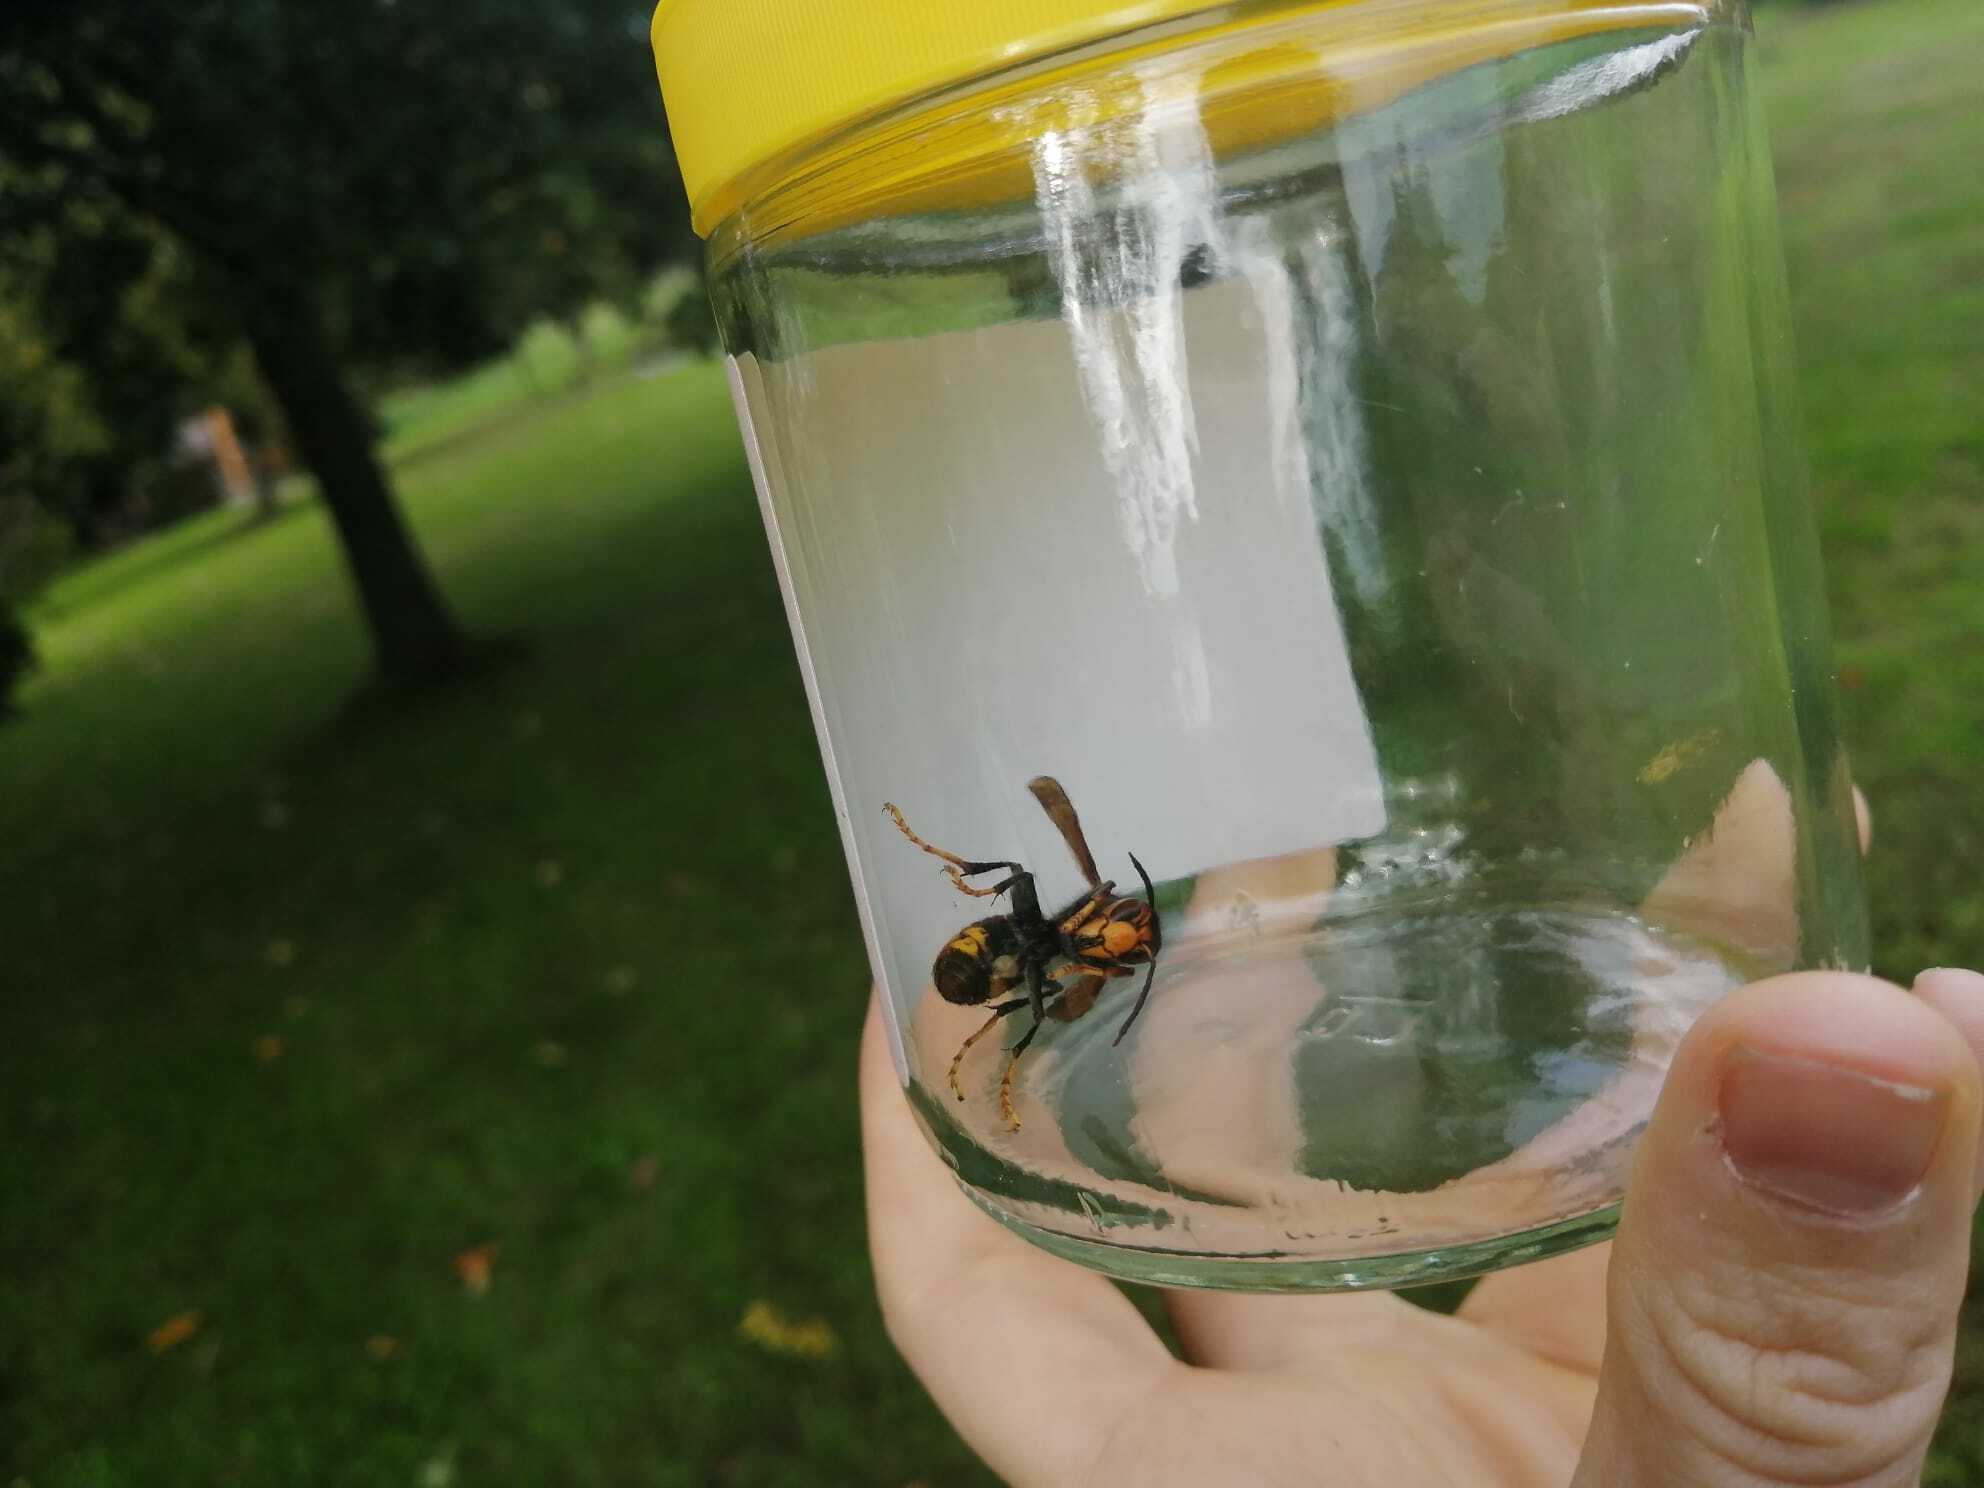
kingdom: Animalia
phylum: Arthropoda
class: Insecta
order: Hymenoptera
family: Vespidae
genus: Vespa
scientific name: Vespa velutina
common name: Asian hornet
